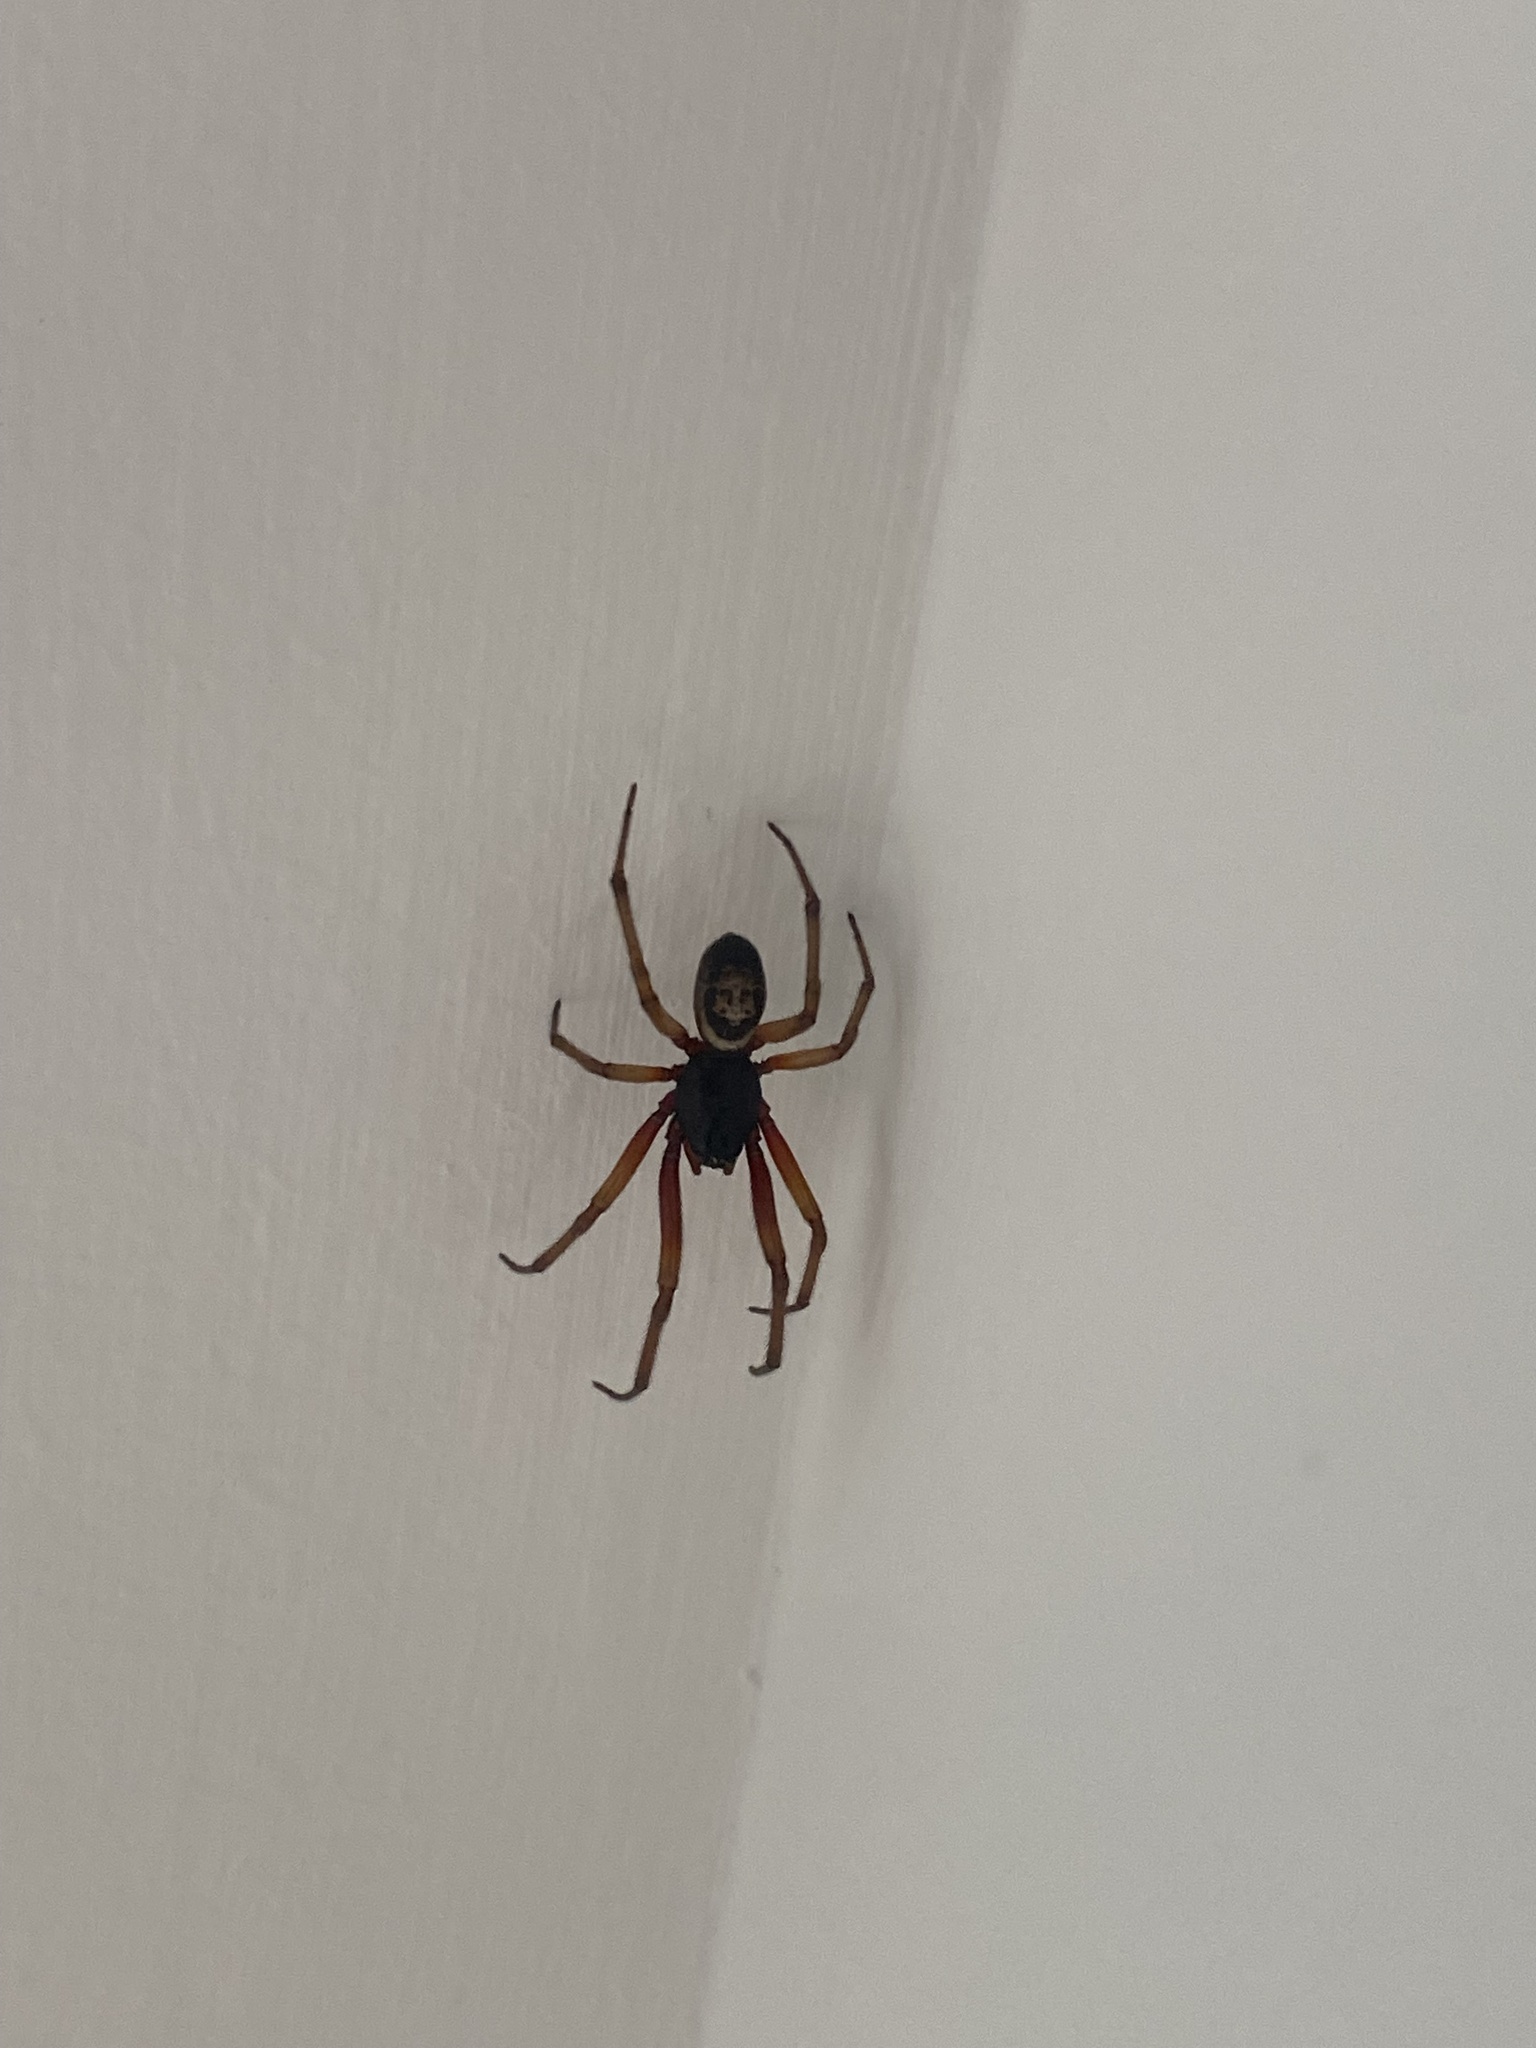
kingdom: Animalia
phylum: Arthropoda
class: Arachnida
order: Araneae
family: Theridiidae
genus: Steatoda
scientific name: Steatoda nobilis
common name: Cobweb weaver
